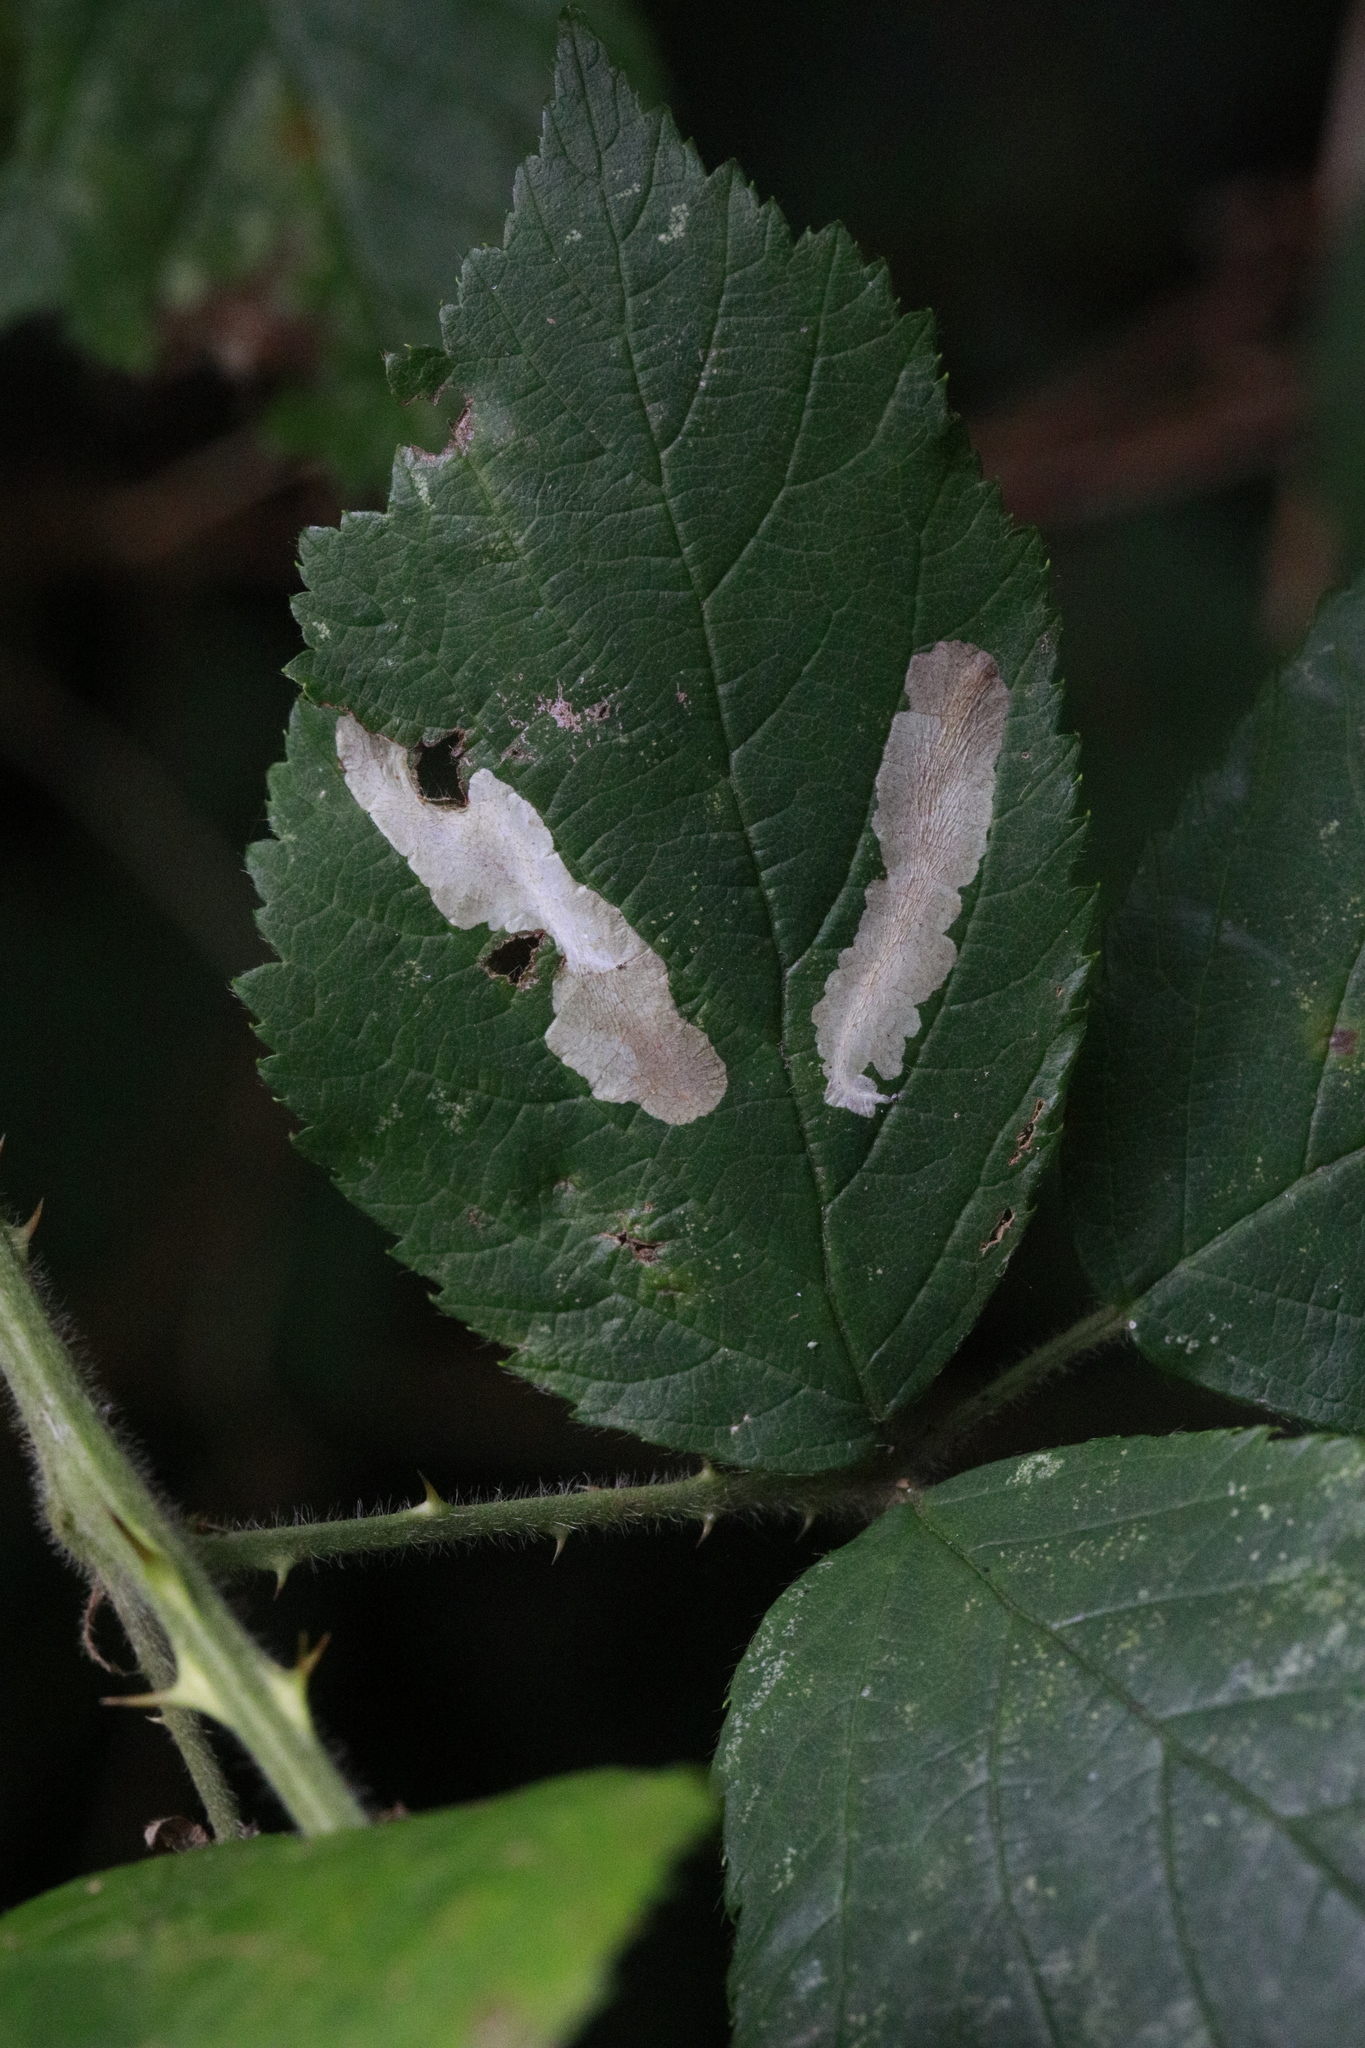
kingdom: Animalia
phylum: Arthropoda
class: Insecta
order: Lepidoptera
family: Tischeriidae
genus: Coptotriche
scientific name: Coptotriche marginea
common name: Bordered carl
